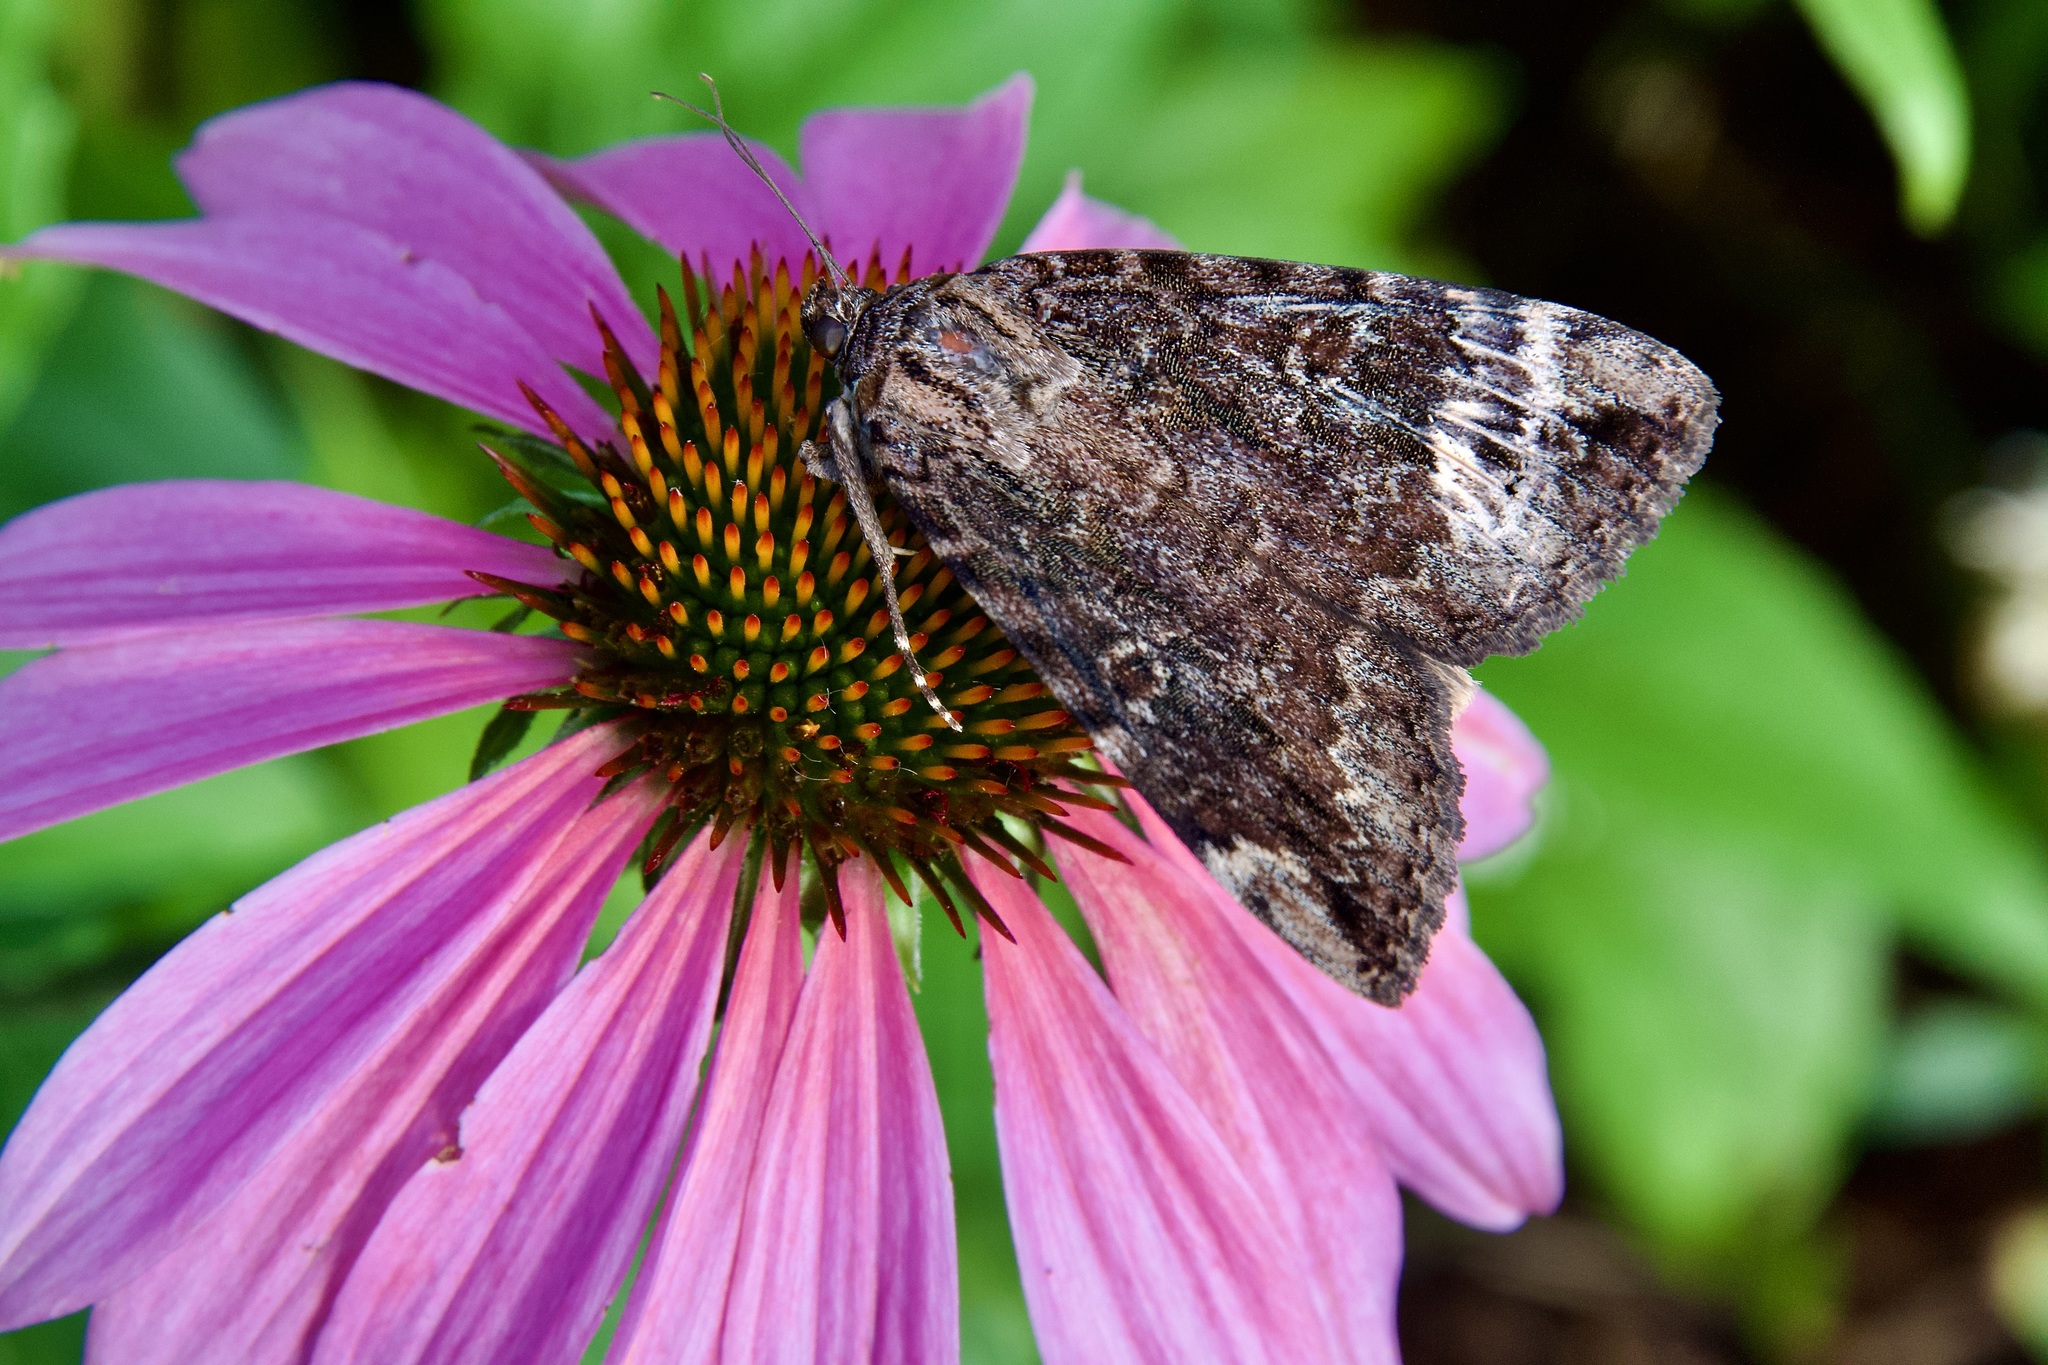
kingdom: Animalia
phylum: Arthropoda
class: Insecta
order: Lepidoptera
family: Erebidae
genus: Catocala
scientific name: Catocala innubens
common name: Betrothed underwing
